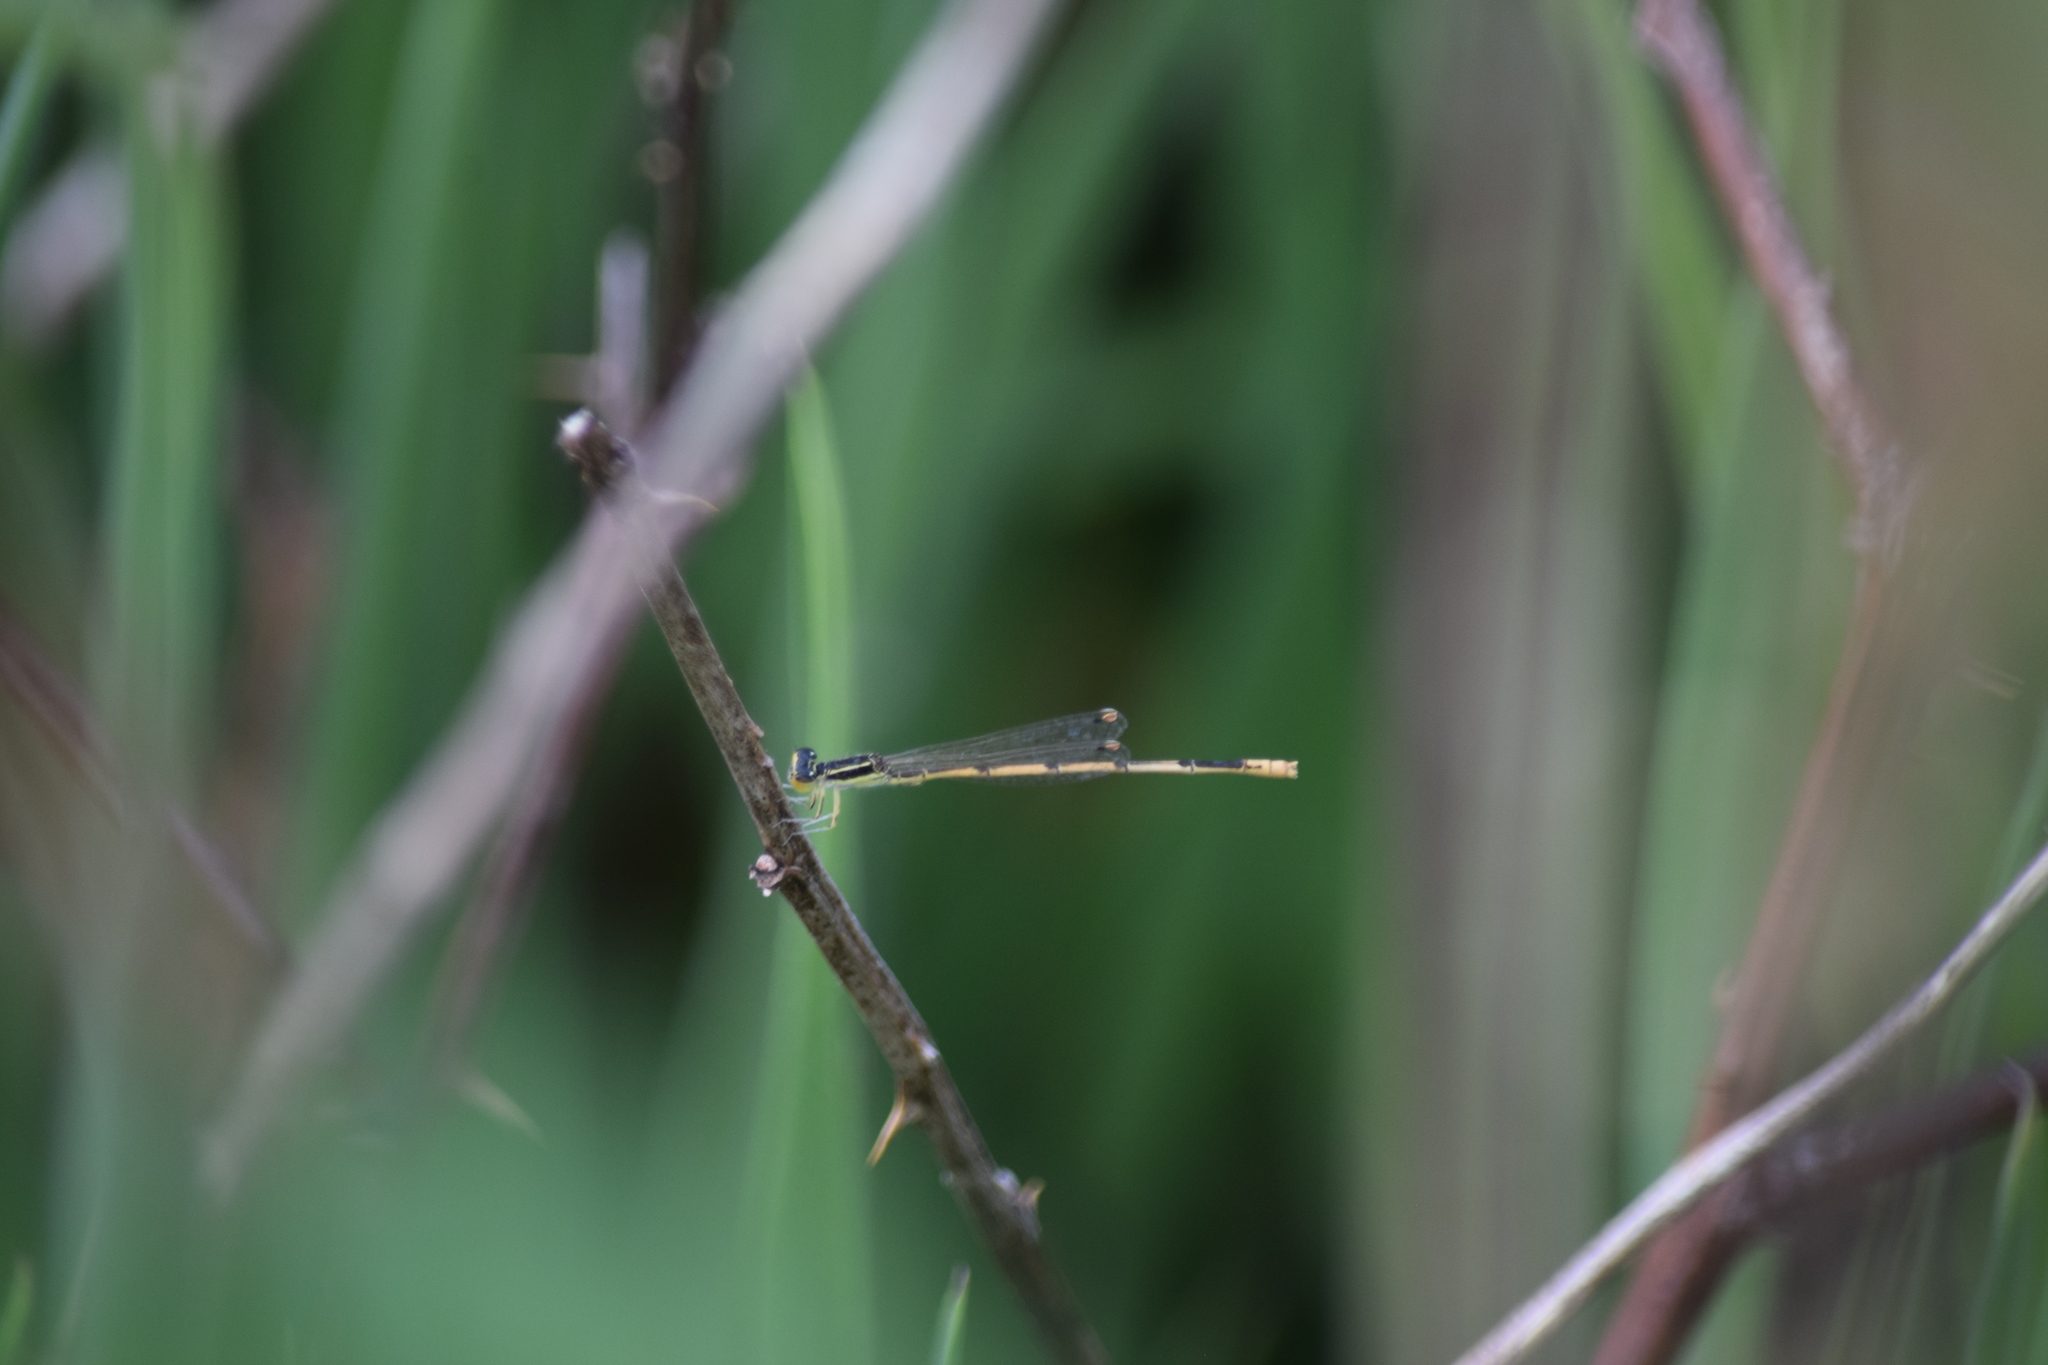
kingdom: Animalia
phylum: Arthropoda
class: Insecta
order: Odonata
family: Coenagrionidae
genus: Ischnura
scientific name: Ischnura hastata
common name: Citrine forktail
